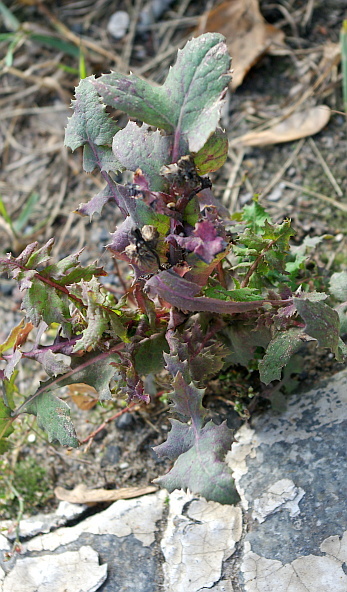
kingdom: Plantae
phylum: Tracheophyta
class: Magnoliopsida
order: Asterales
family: Asteraceae
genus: Sonchus
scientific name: Sonchus oleraceus
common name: Common sowthistle
